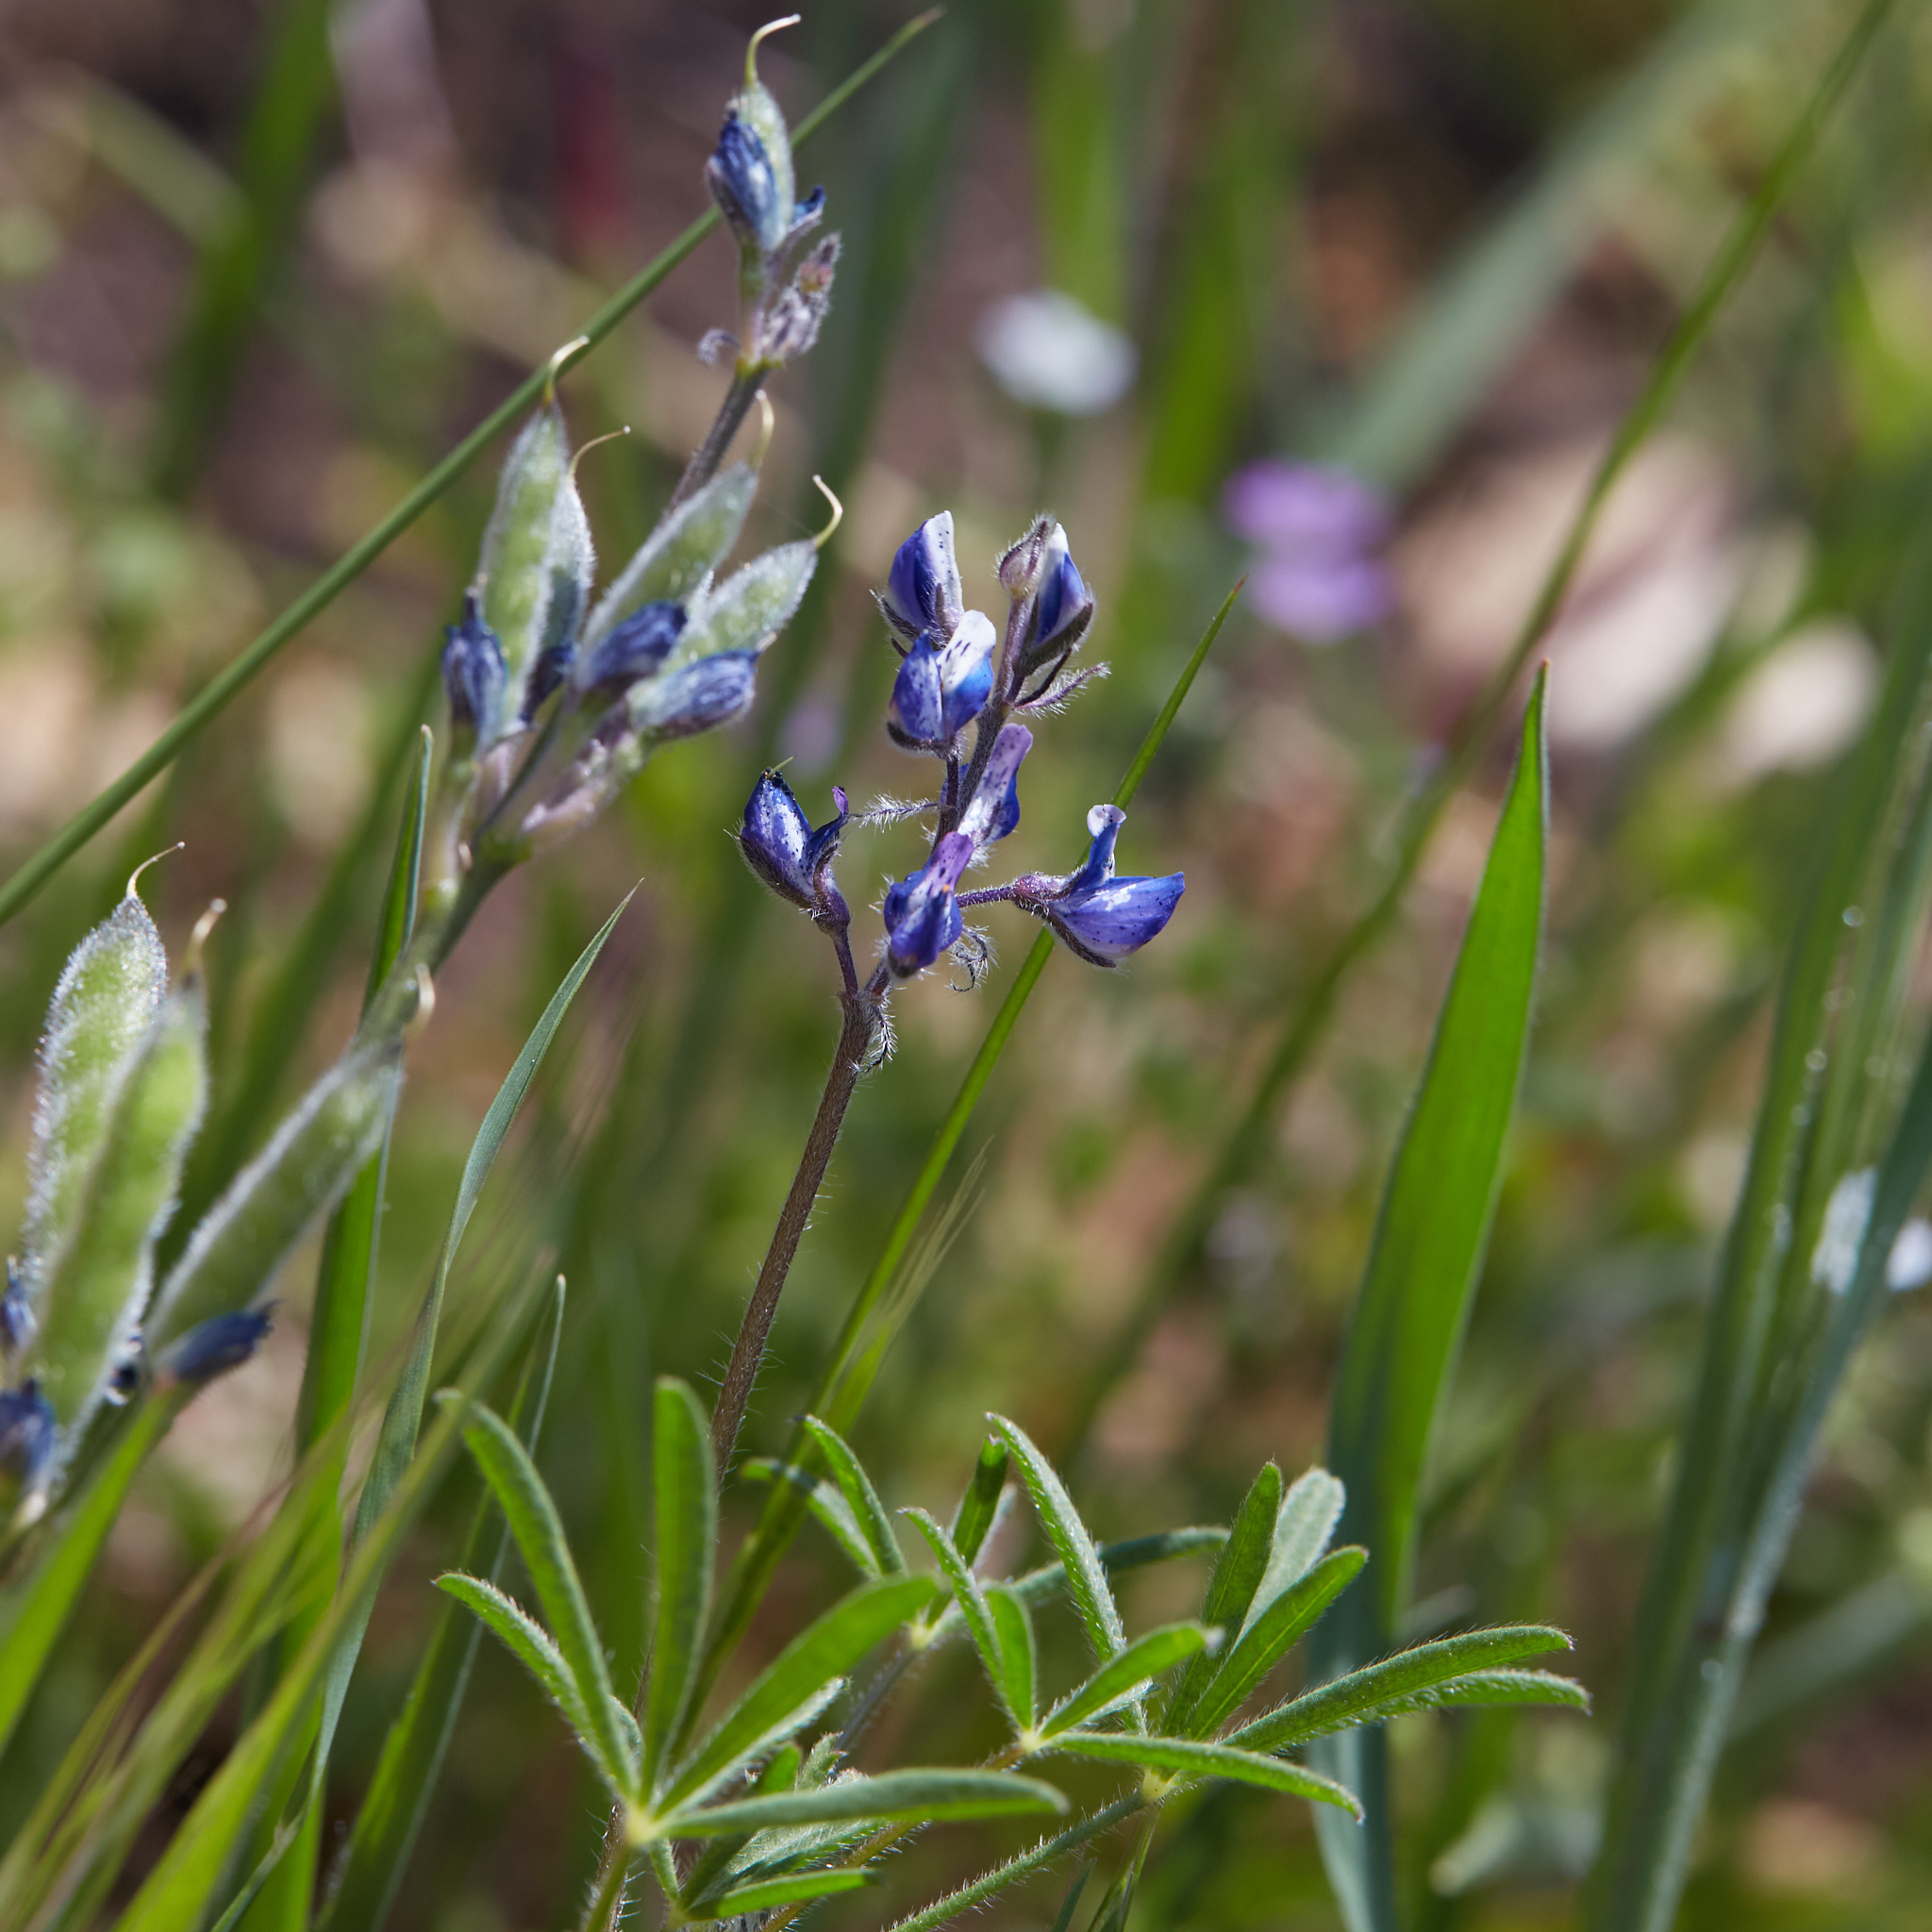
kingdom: Plantae
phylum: Tracheophyta
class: Magnoliopsida
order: Fabales
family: Fabaceae
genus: Lupinus
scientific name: Lupinus bicolor
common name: Miniature lupine
